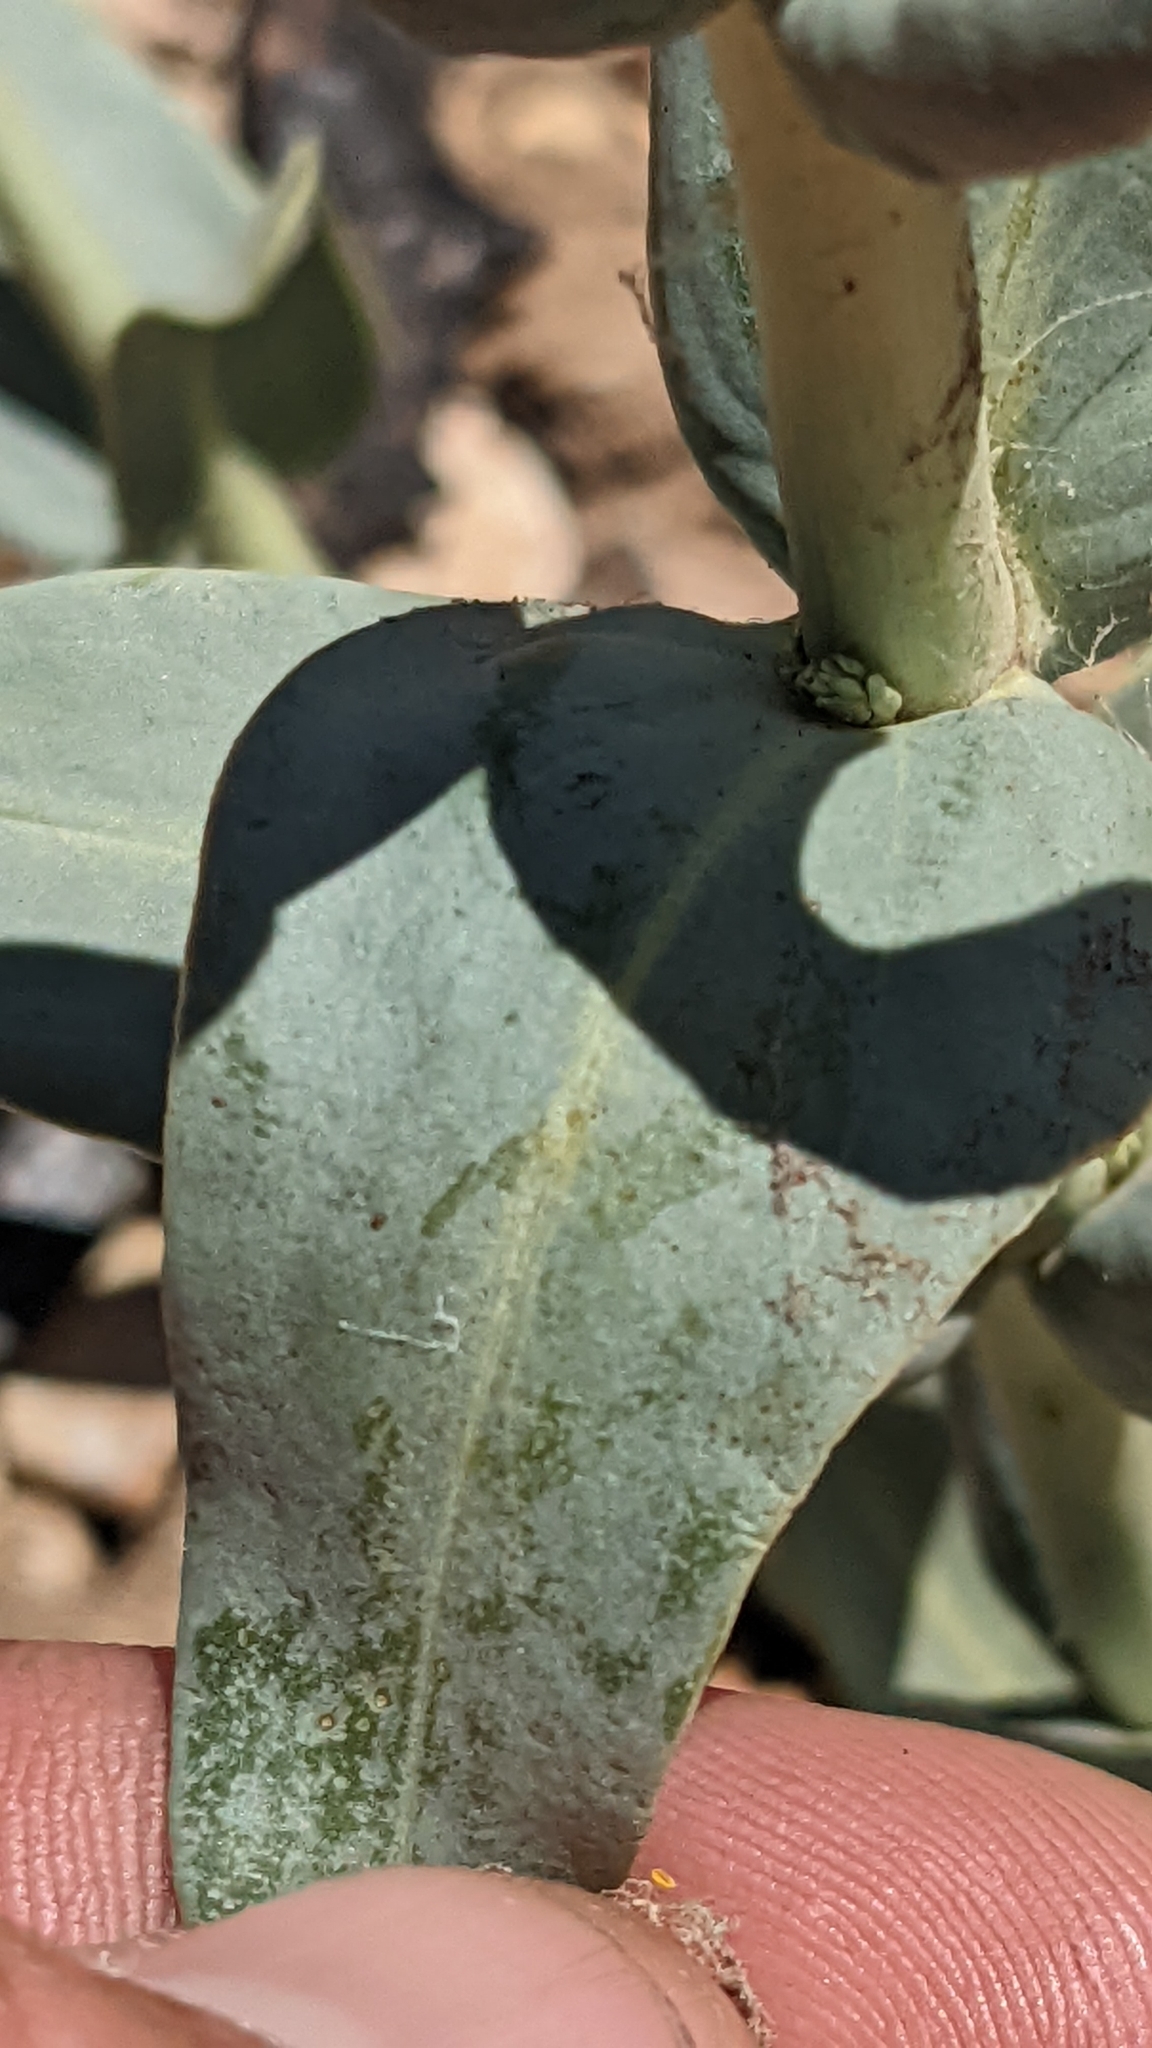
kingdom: Plantae
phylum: Tracheophyta
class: Magnoliopsida
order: Lamiales
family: Plantaginaceae
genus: Penstemon
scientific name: Penstemon pachyphyllus
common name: Thick-leaf penstemon
